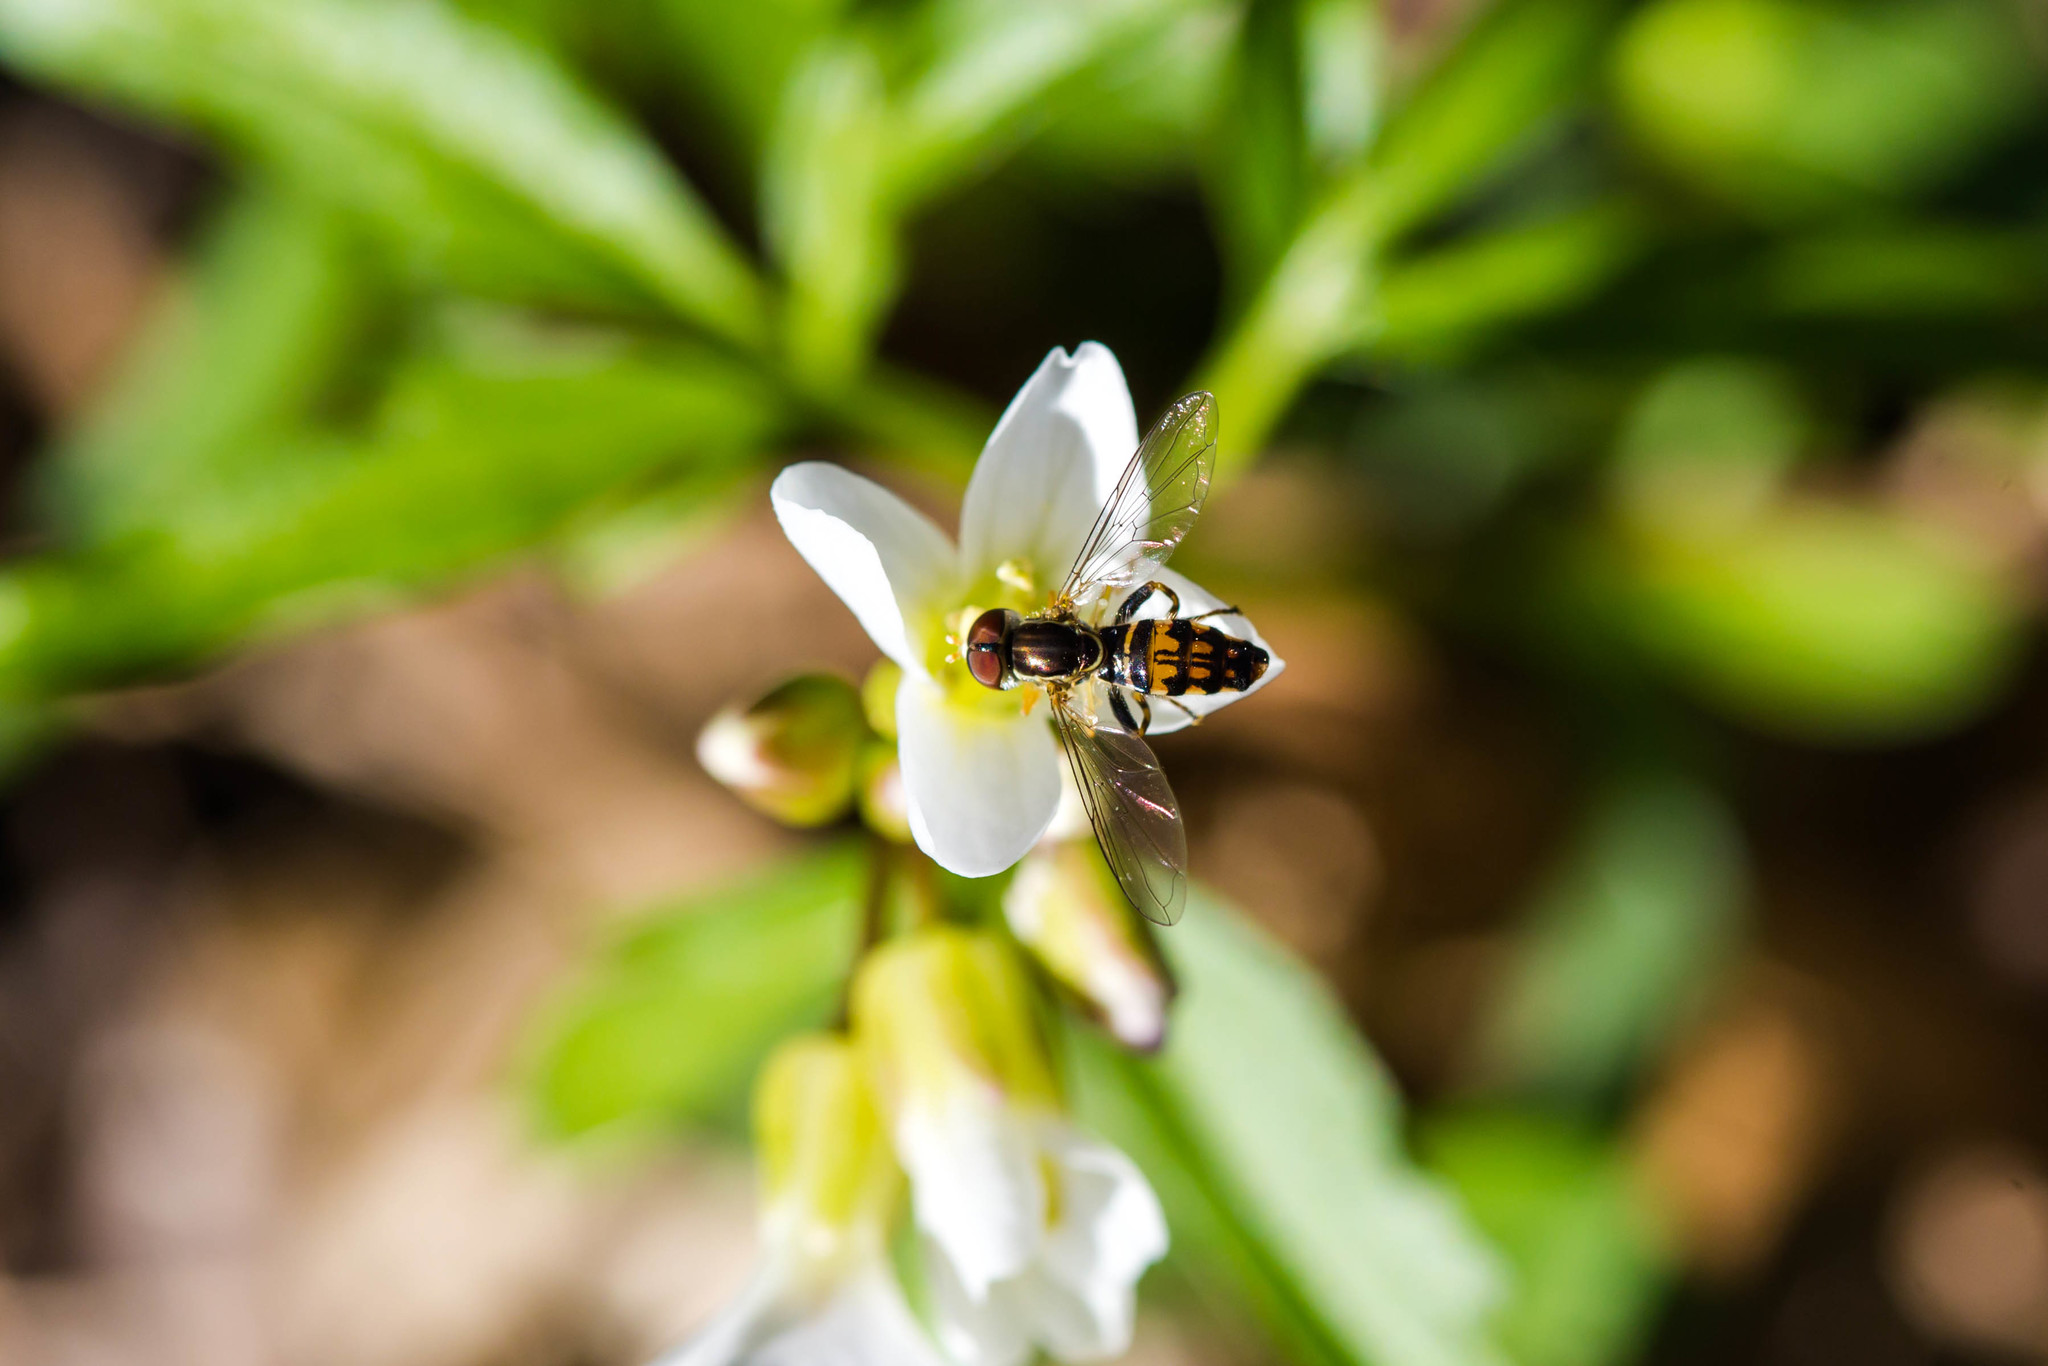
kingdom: Animalia
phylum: Arthropoda
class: Insecta
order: Diptera
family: Syrphidae
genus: Toxomerus
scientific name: Toxomerus geminatus
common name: Eastern calligrapher
